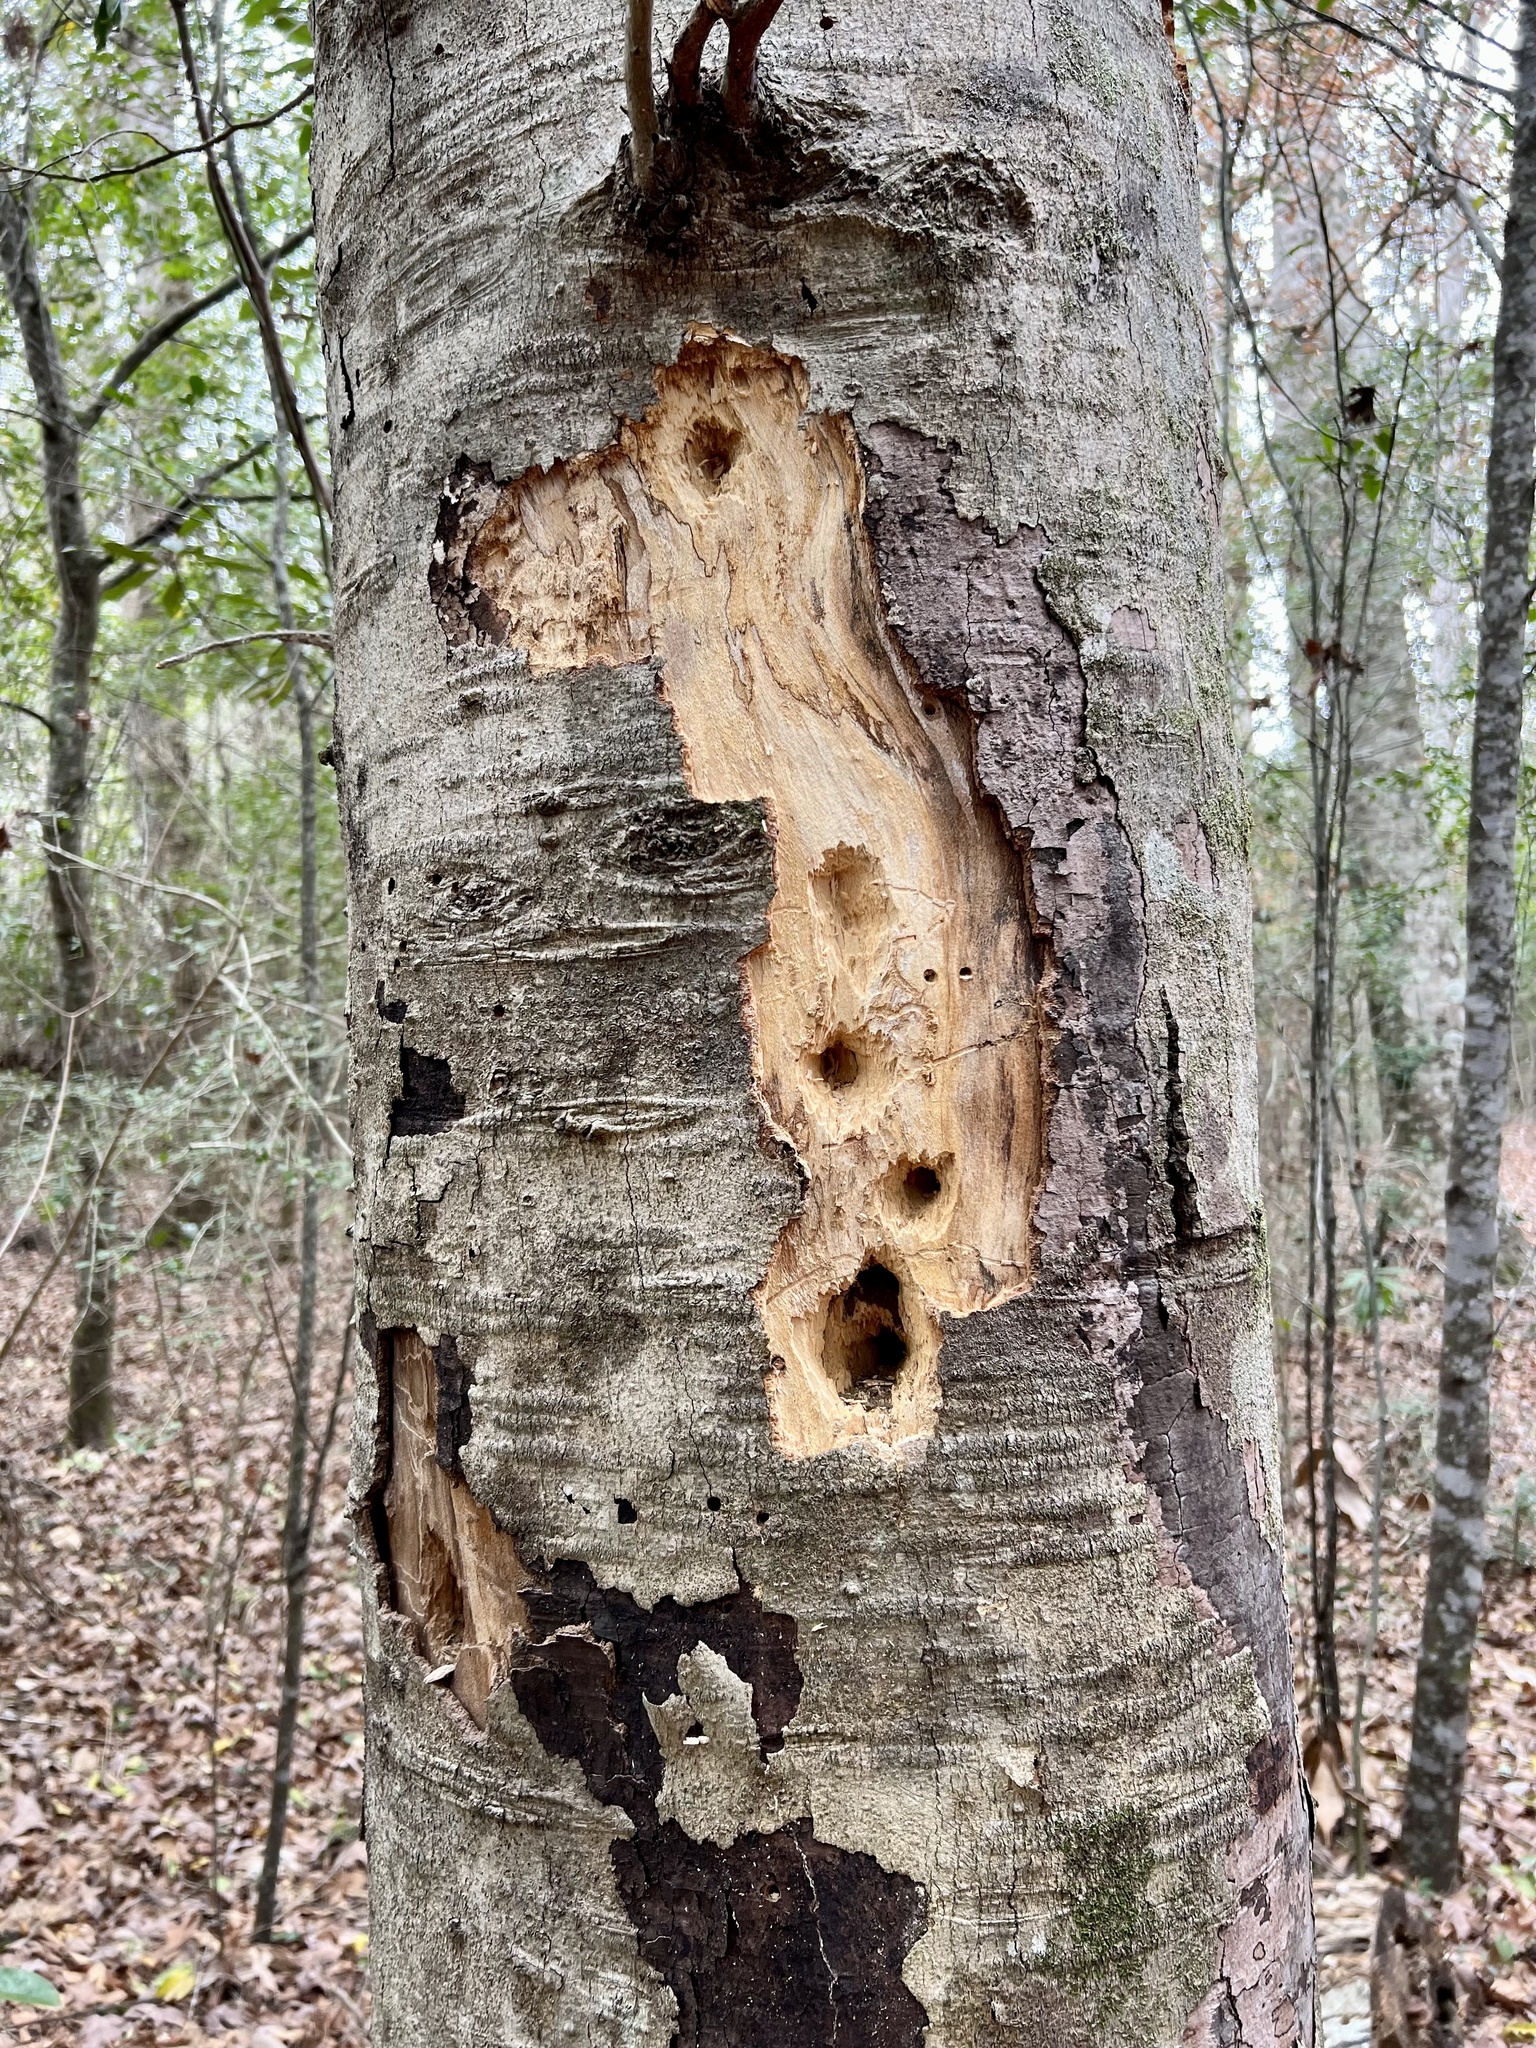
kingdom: Animalia
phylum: Chordata
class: Aves
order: Piciformes
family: Picidae
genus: Dryocopus
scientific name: Dryocopus pileatus
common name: Pileated woodpecker
